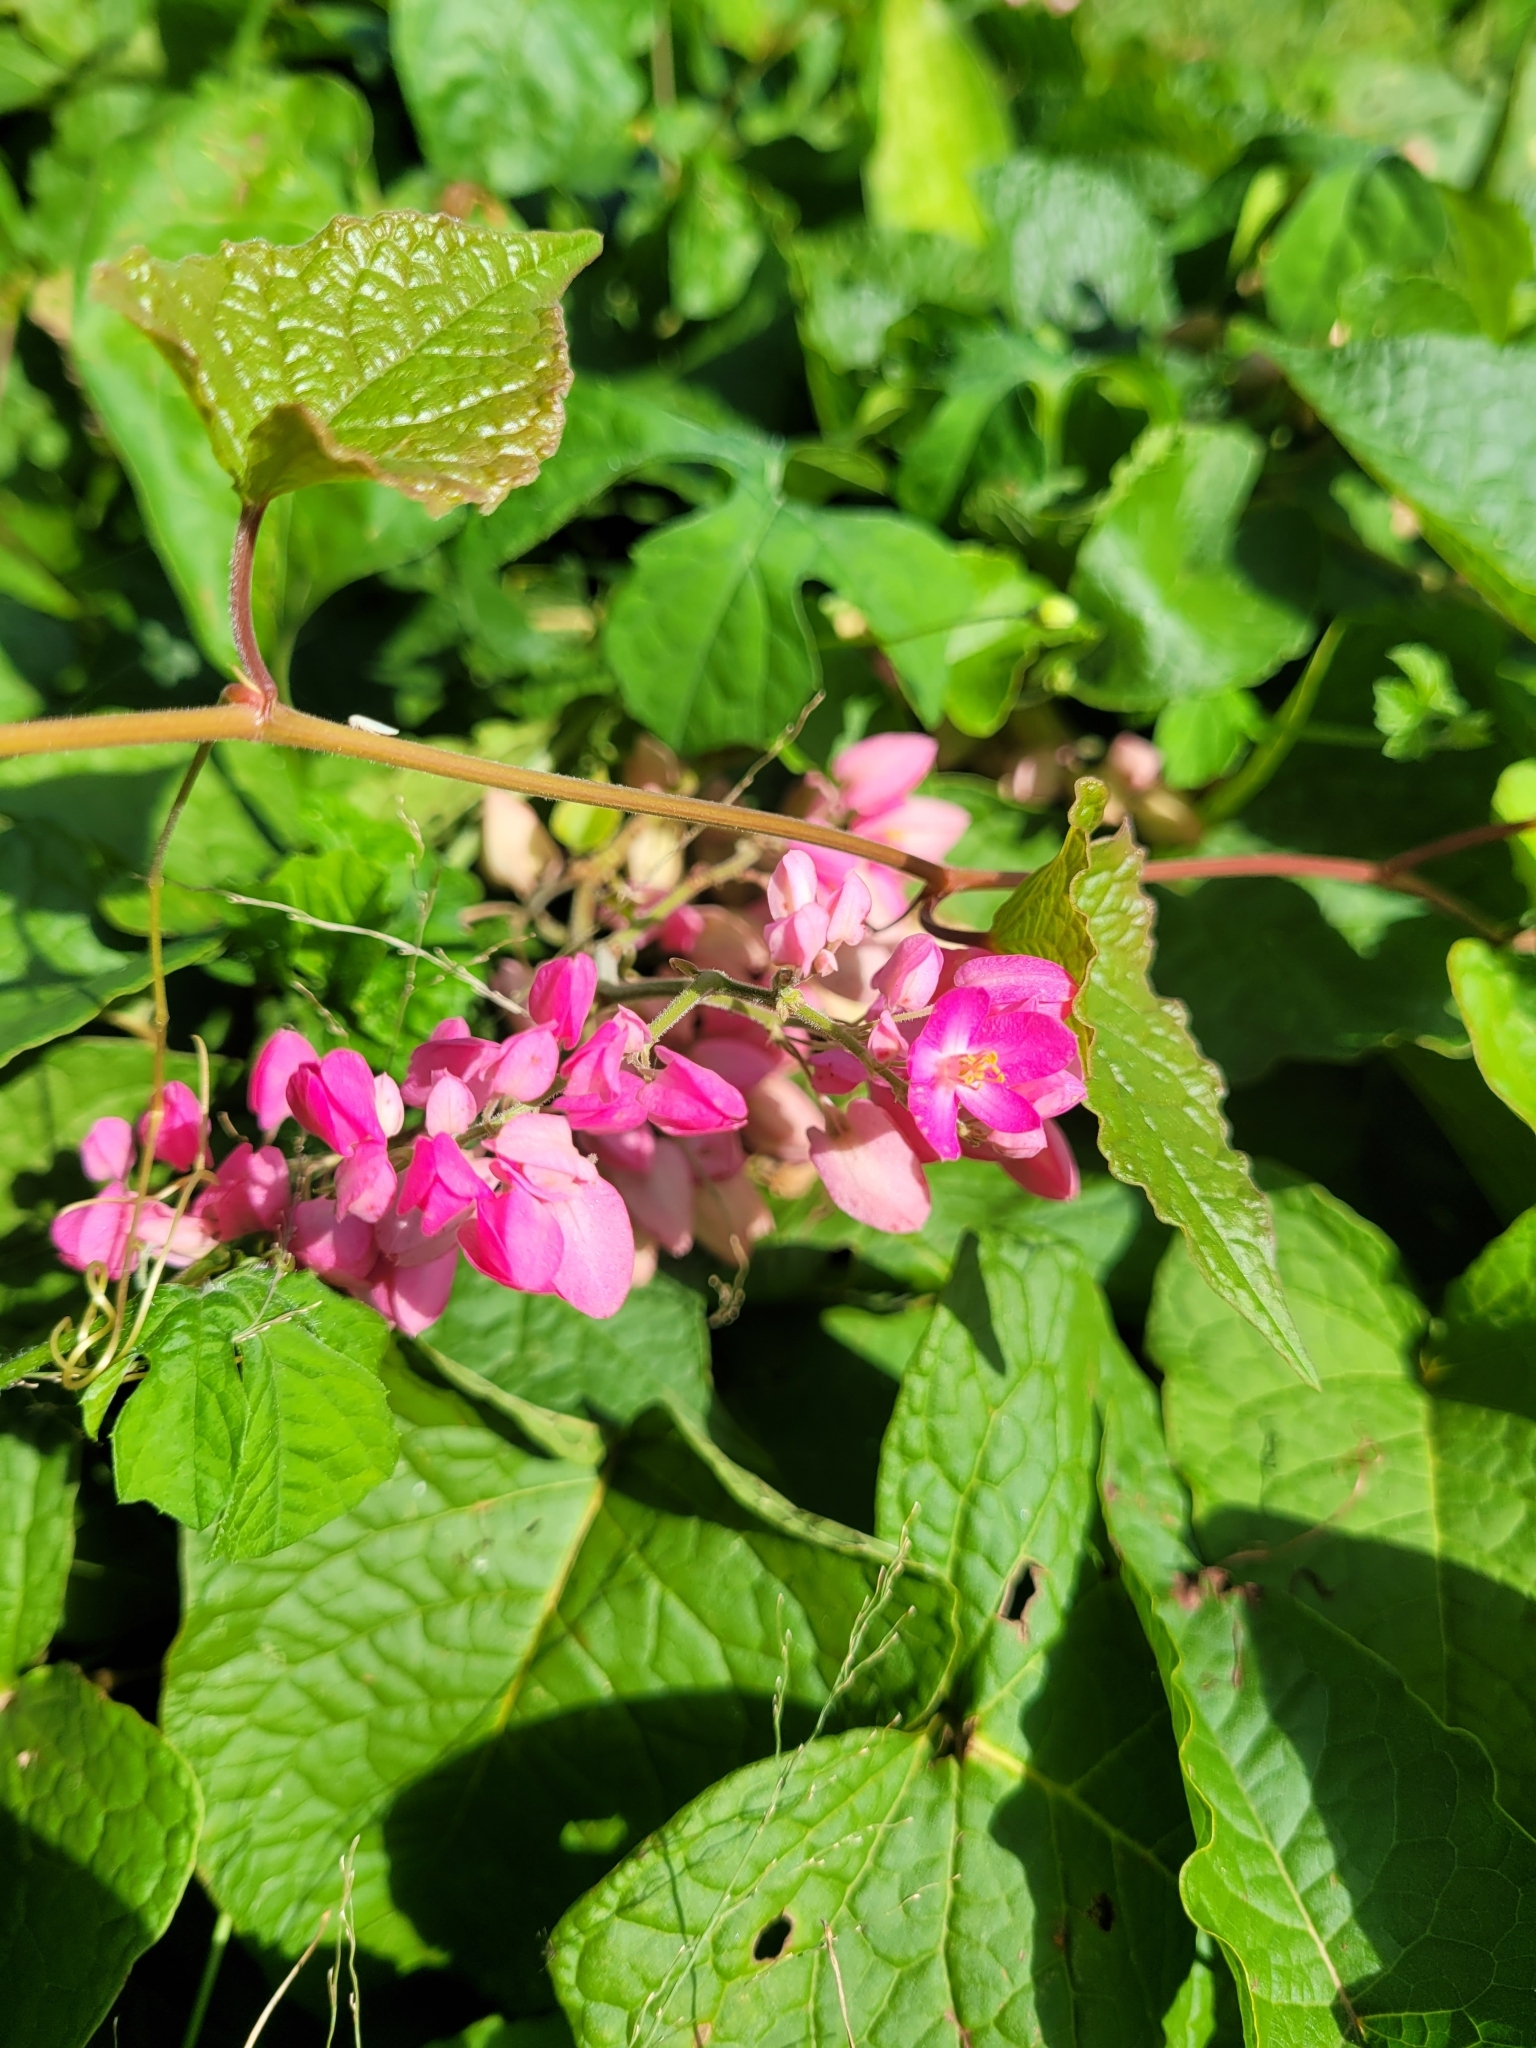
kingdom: Plantae
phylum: Tracheophyta
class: Magnoliopsida
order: Caryophyllales
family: Polygonaceae
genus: Antigonon
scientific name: Antigonon leptopus
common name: Coral vine
